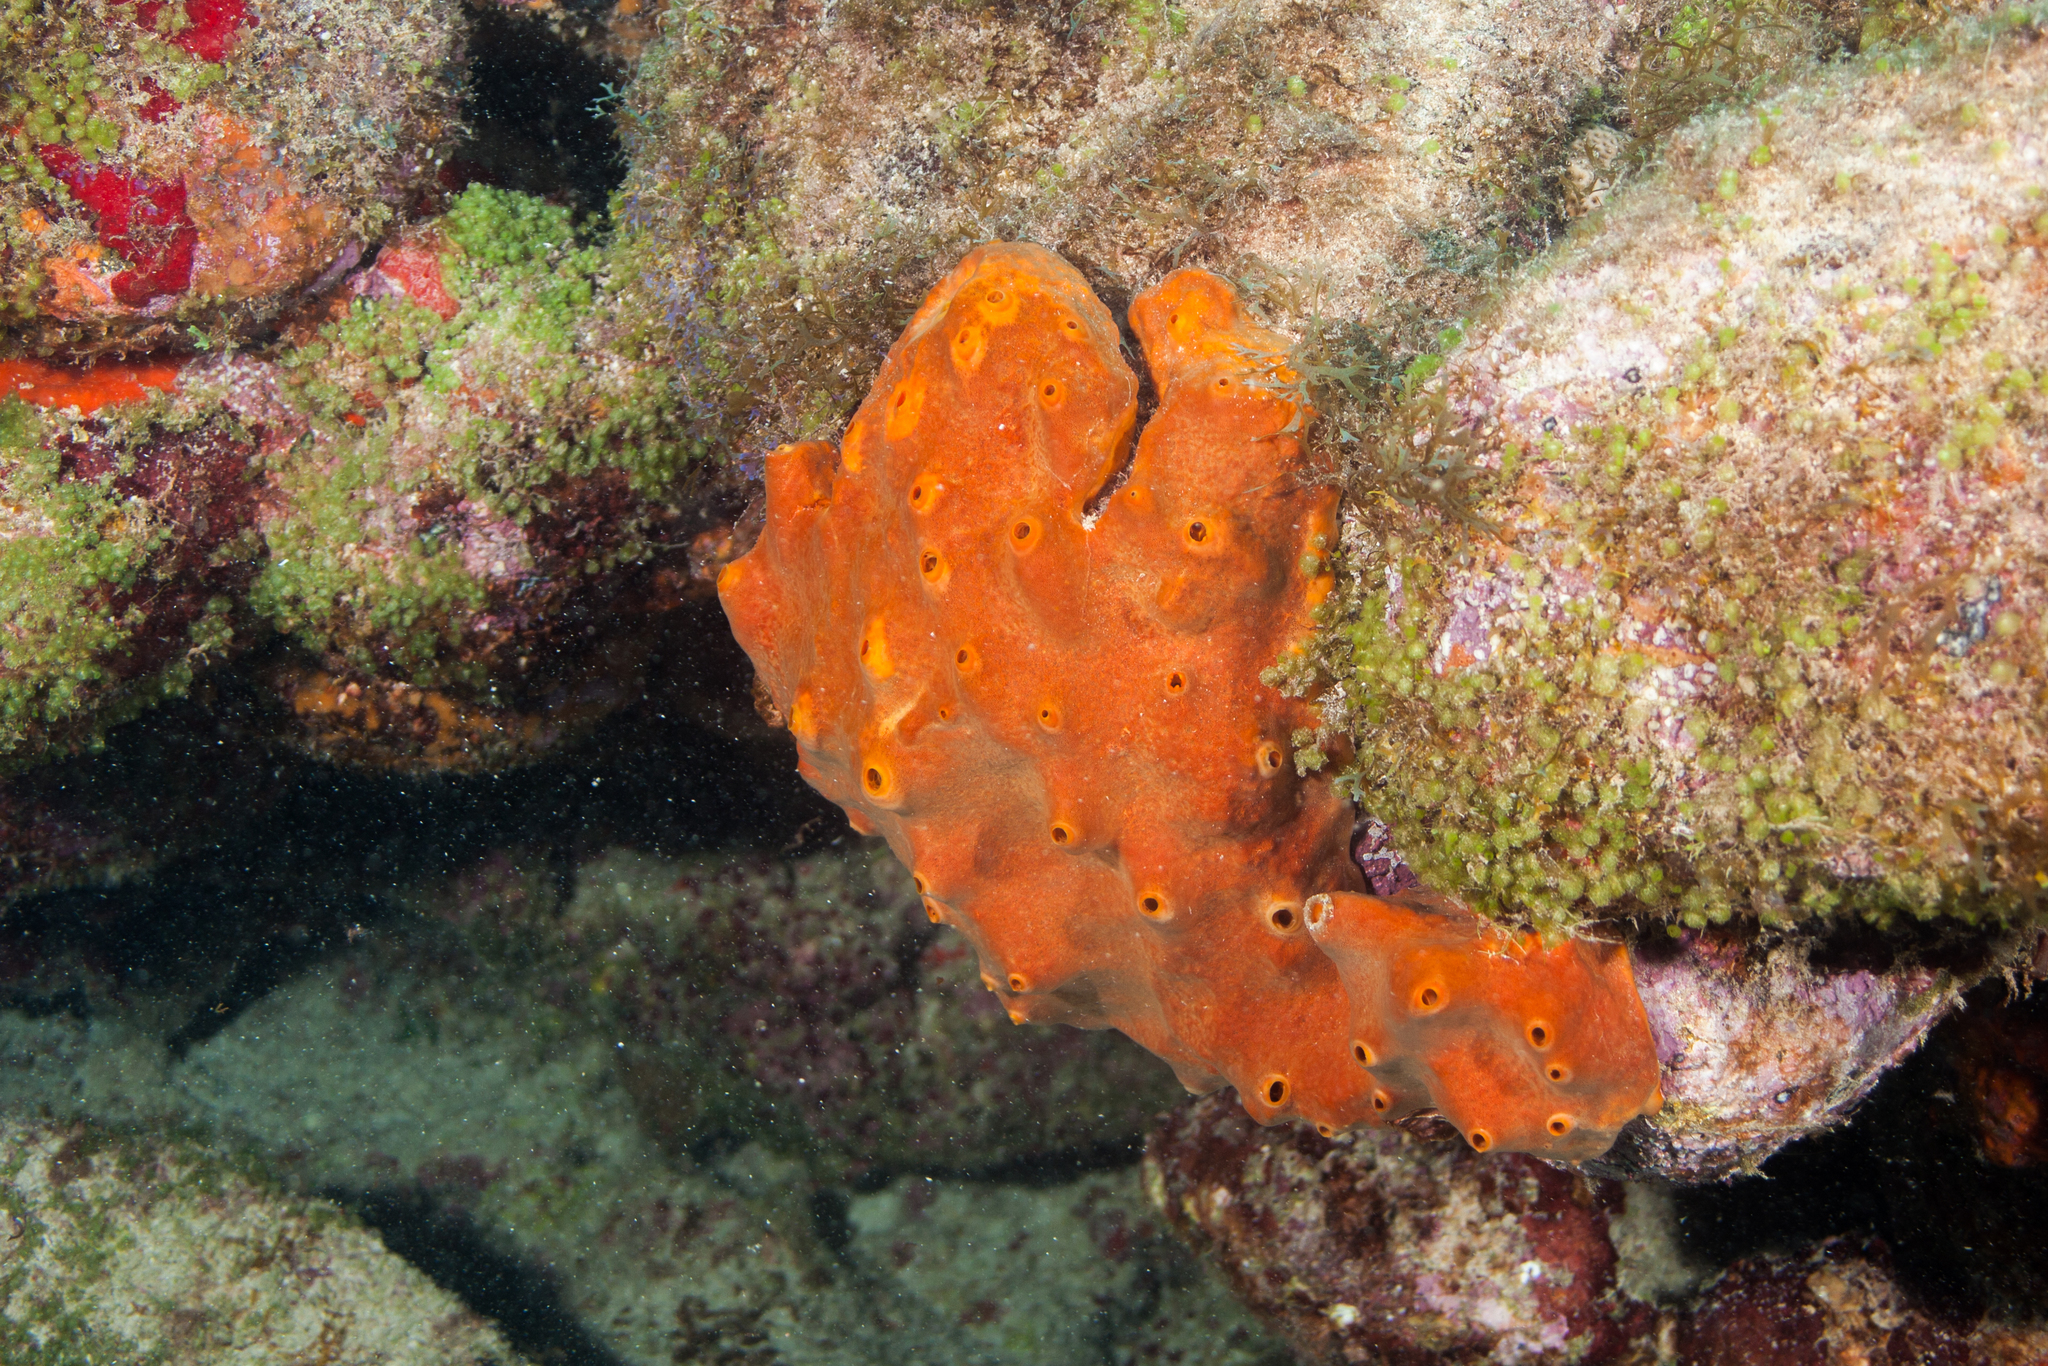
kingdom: Animalia
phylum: Porifera
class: Demospongiae
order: Axinellida
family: Raspailiidae
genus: Ectyoplasia
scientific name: Ectyoplasia ferox
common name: Brown encrusting octopus sponge
